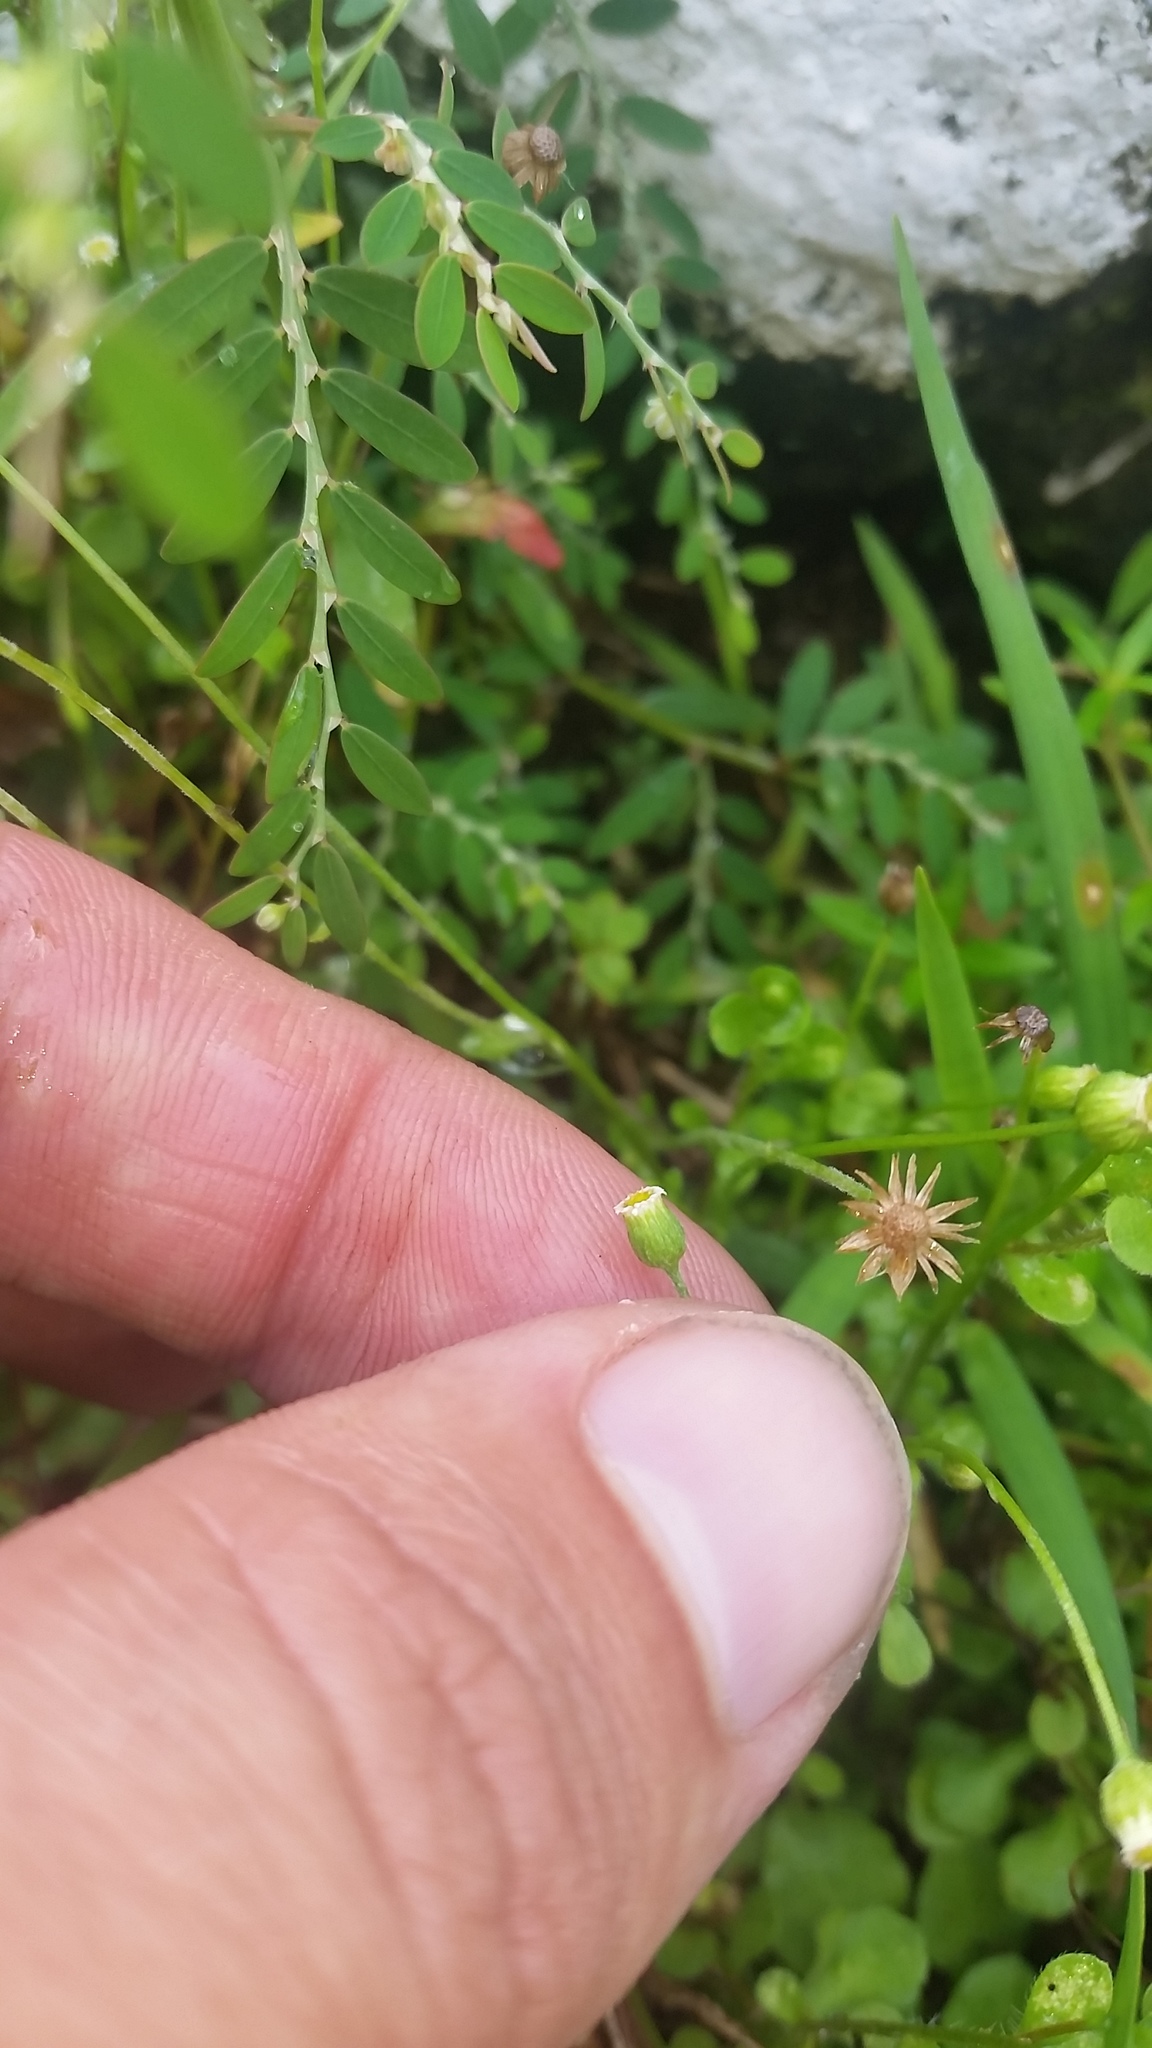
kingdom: Plantae
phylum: Tracheophyta
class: Magnoliopsida
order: Asterales
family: Asteraceae
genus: Erigeron
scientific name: Erigeron bellioides
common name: Bellorita
